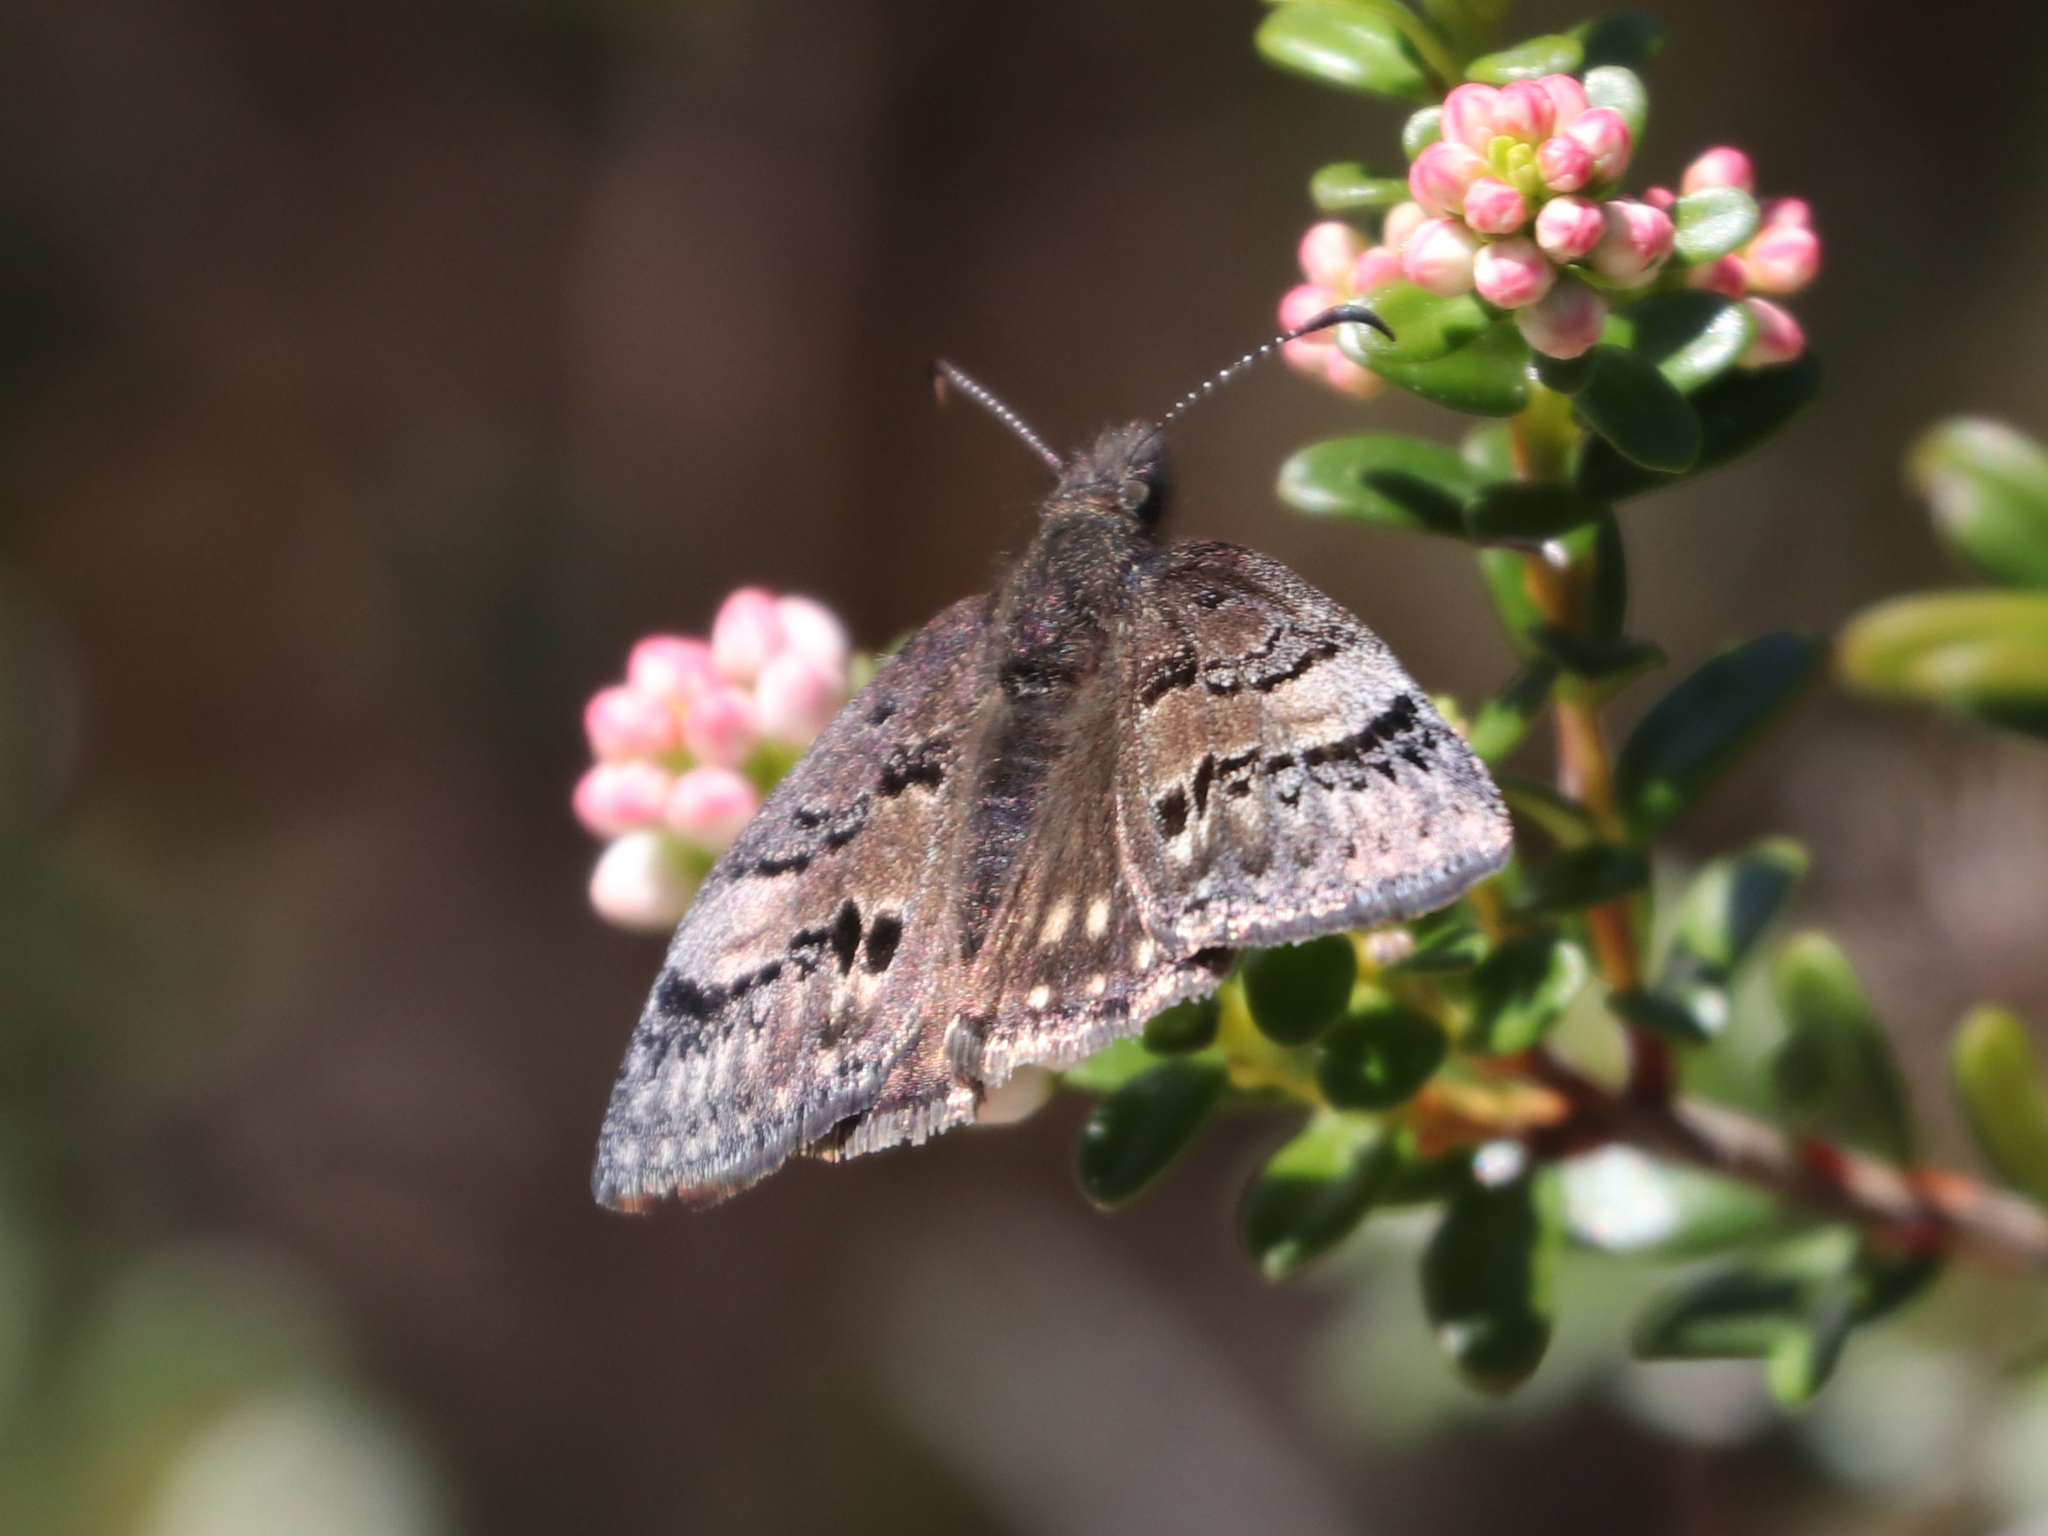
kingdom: Animalia
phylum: Arthropoda
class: Insecta
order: Lepidoptera
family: Hesperiidae
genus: Erynnis
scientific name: Erynnis brizo
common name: Sleepy duskywing
